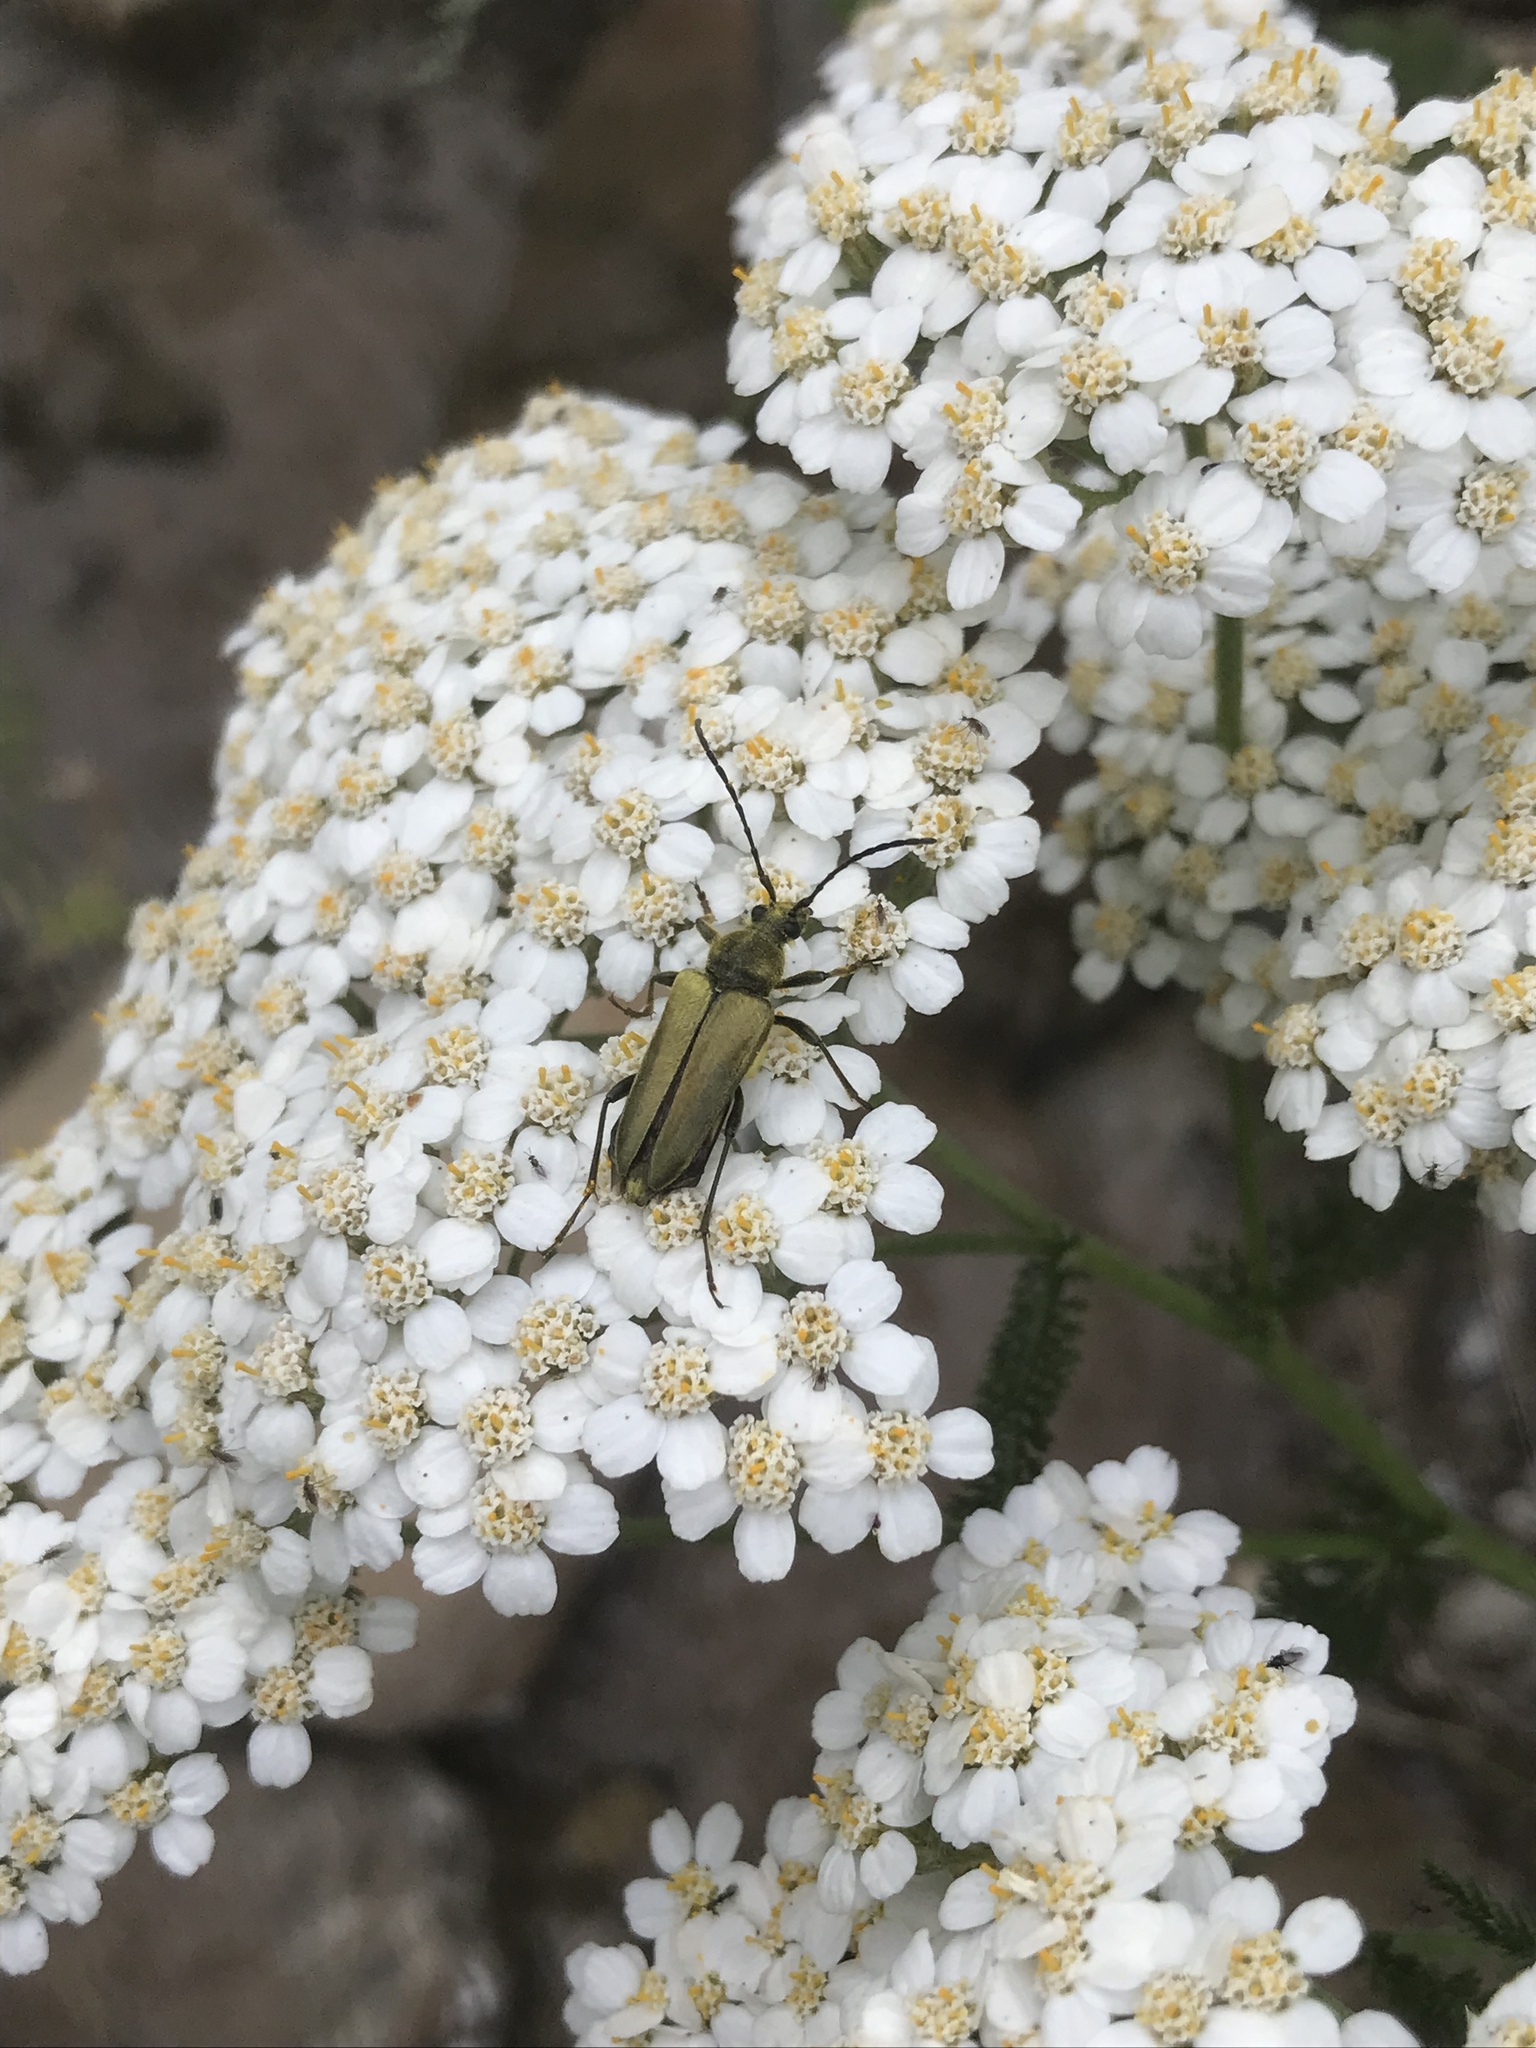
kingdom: Animalia
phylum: Arthropoda
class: Insecta
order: Coleoptera
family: Cerambycidae
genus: Cosmosalia
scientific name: Cosmosalia chrysocoma
